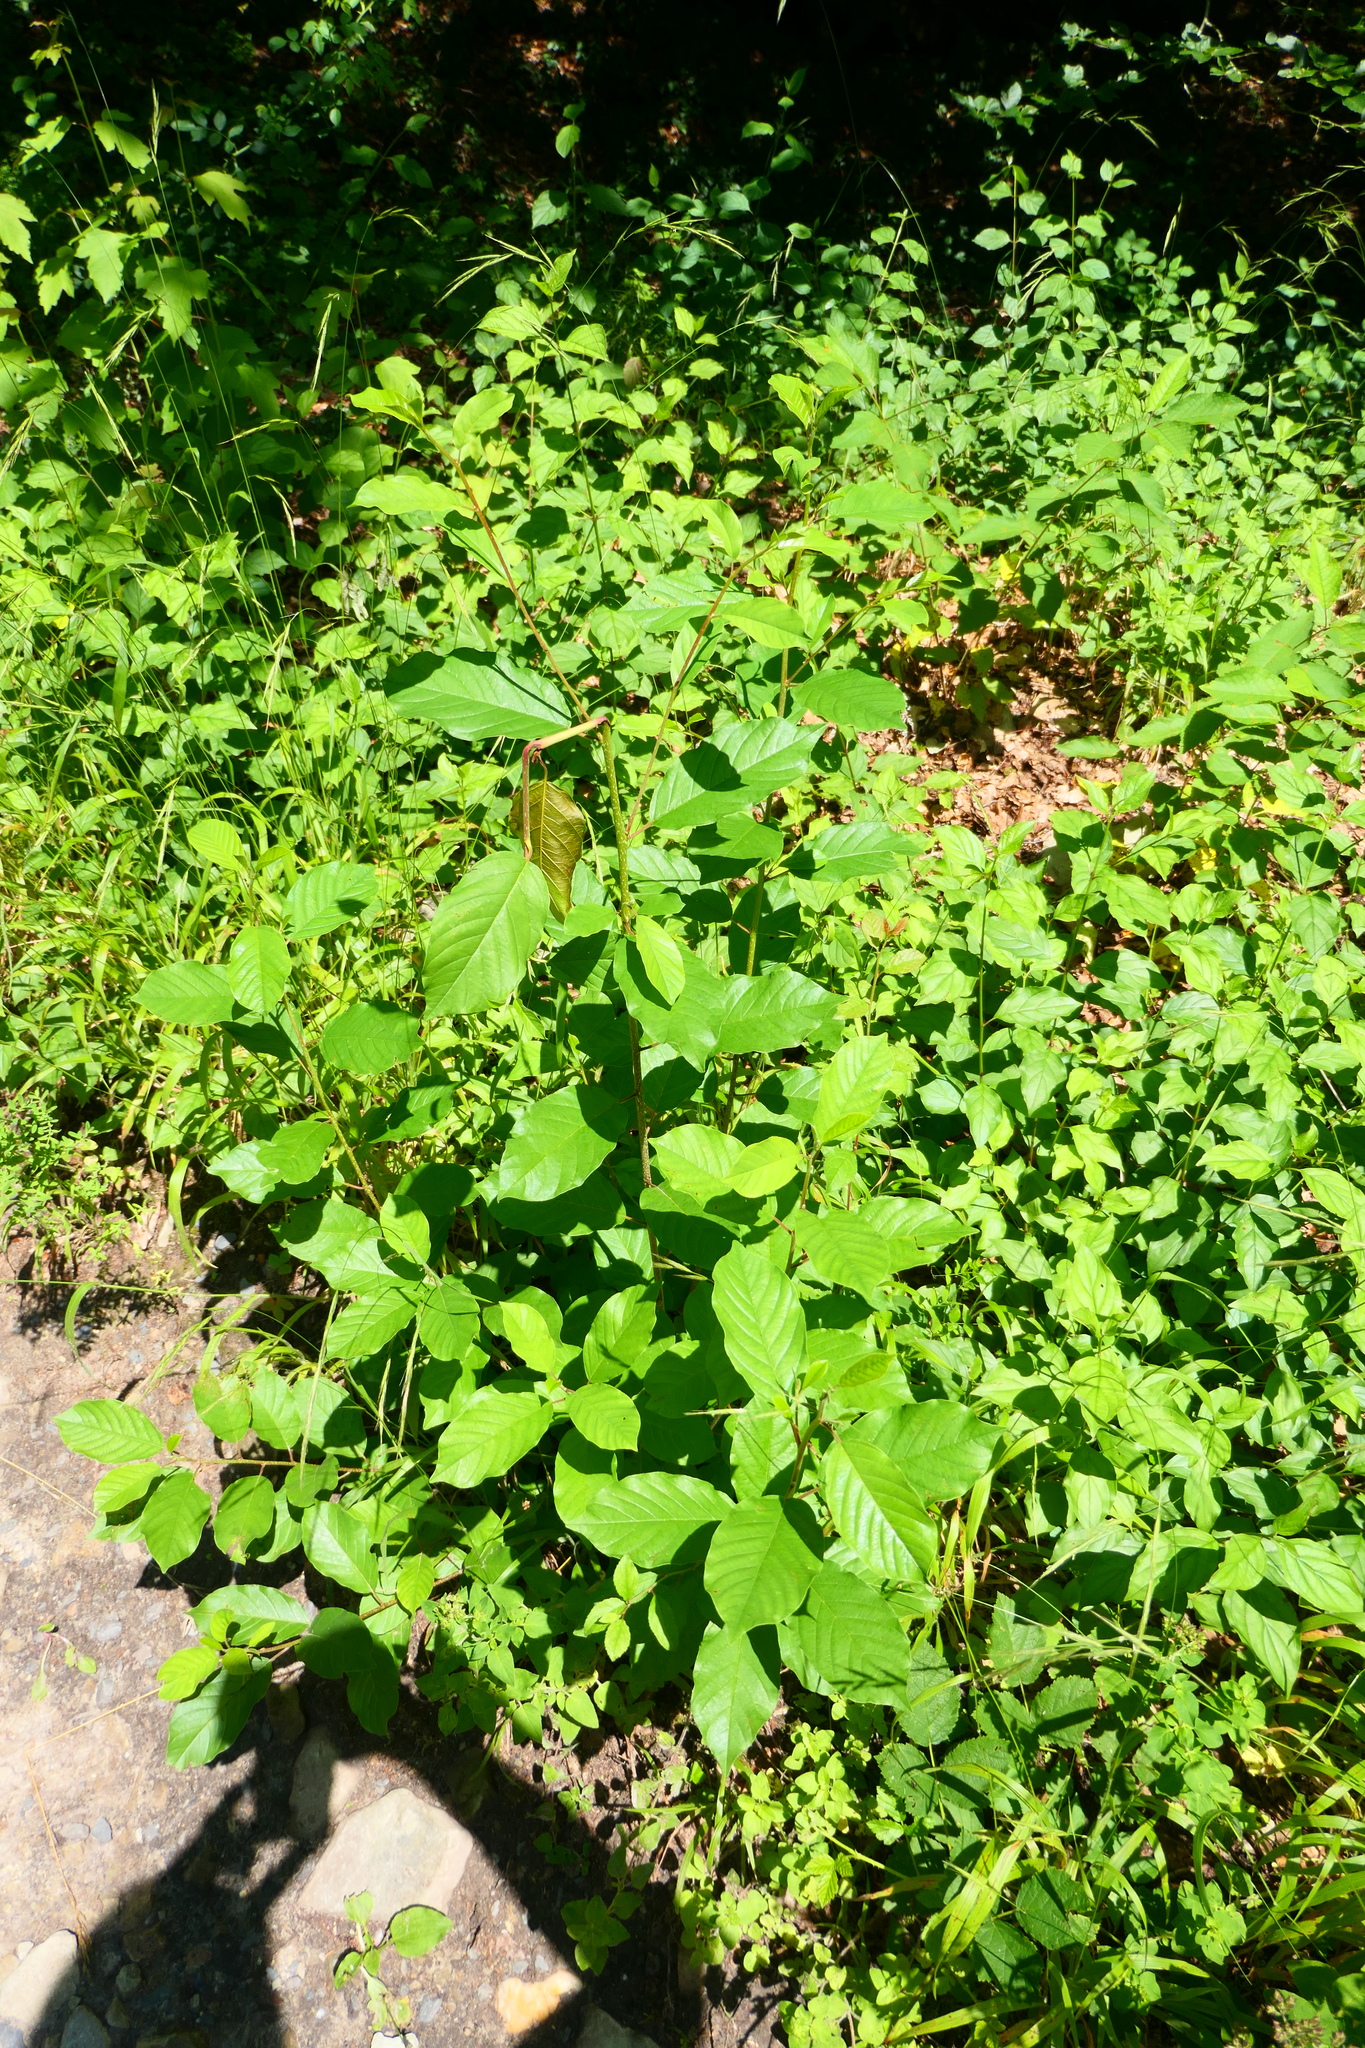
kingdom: Plantae
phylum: Tracheophyta
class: Magnoliopsida
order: Rosales
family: Rhamnaceae
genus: Frangula
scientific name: Frangula alnus
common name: Alder buckthorn
